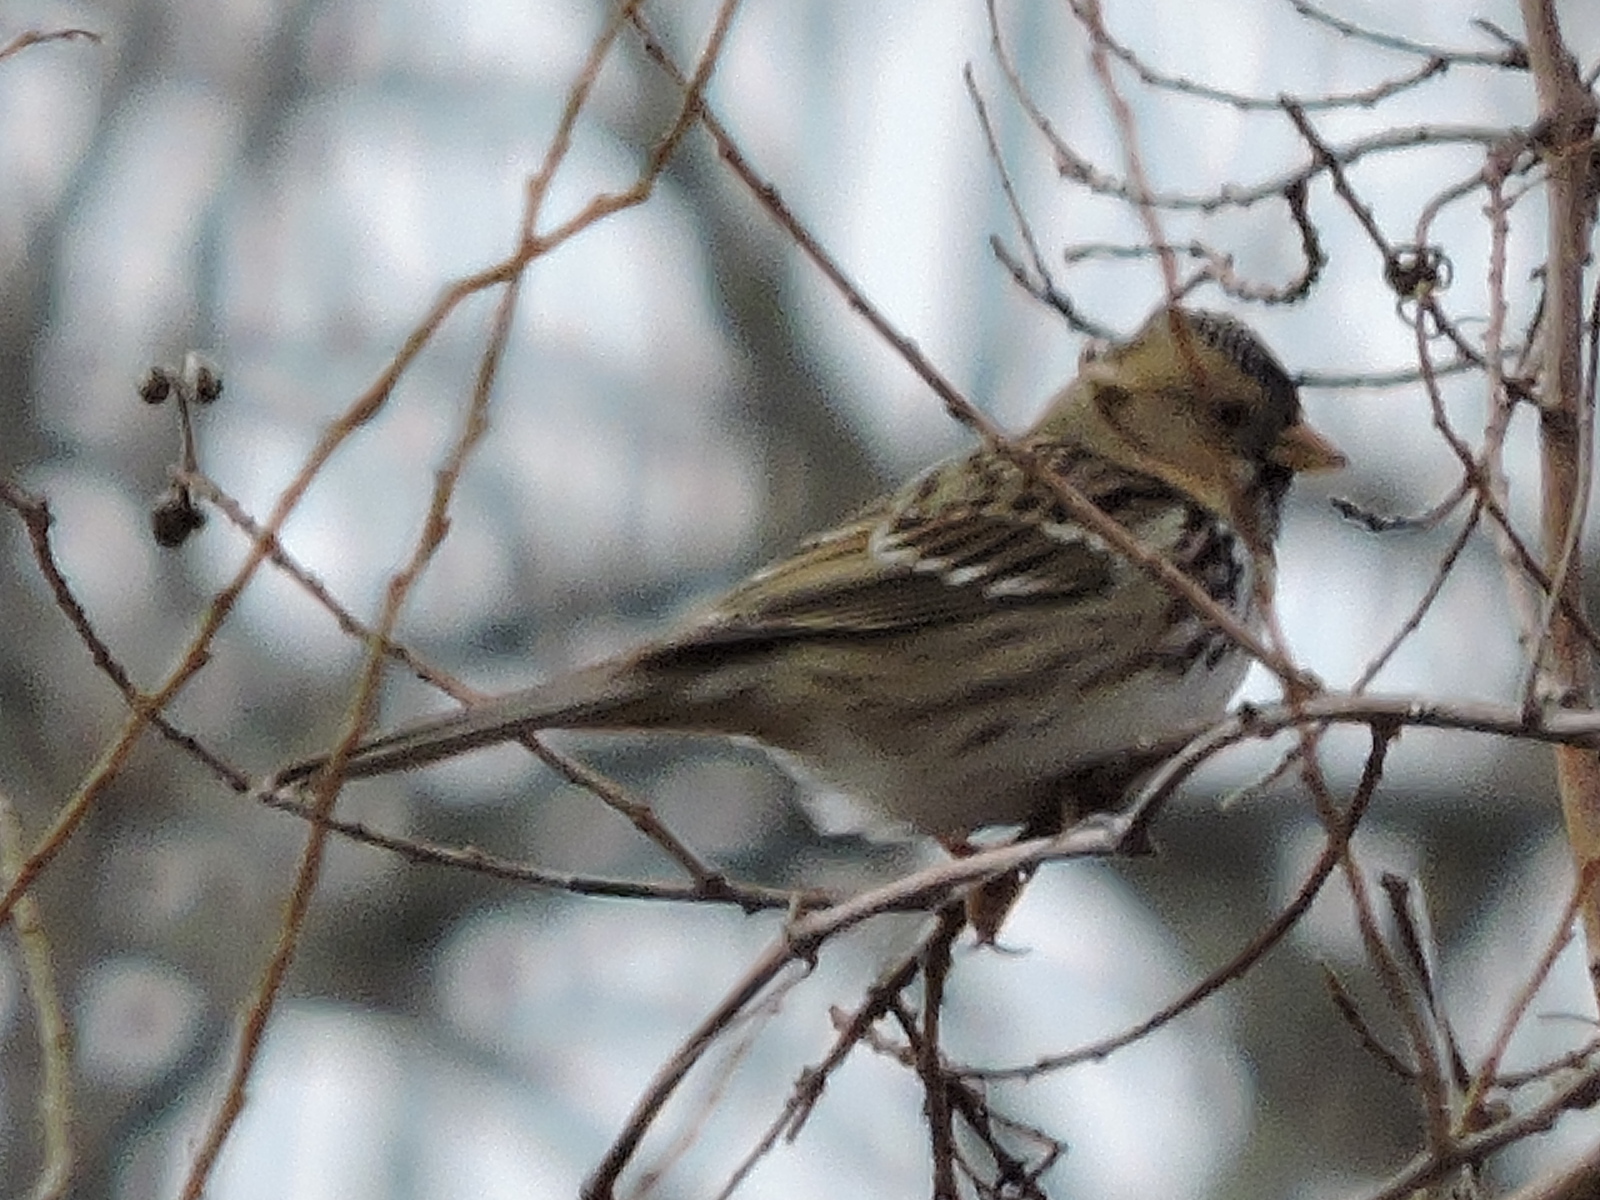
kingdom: Animalia
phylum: Chordata
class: Aves
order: Passeriformes
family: Passerellidae
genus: Zonotrichia
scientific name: Zonotrichia querula
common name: Harris's sparrow
